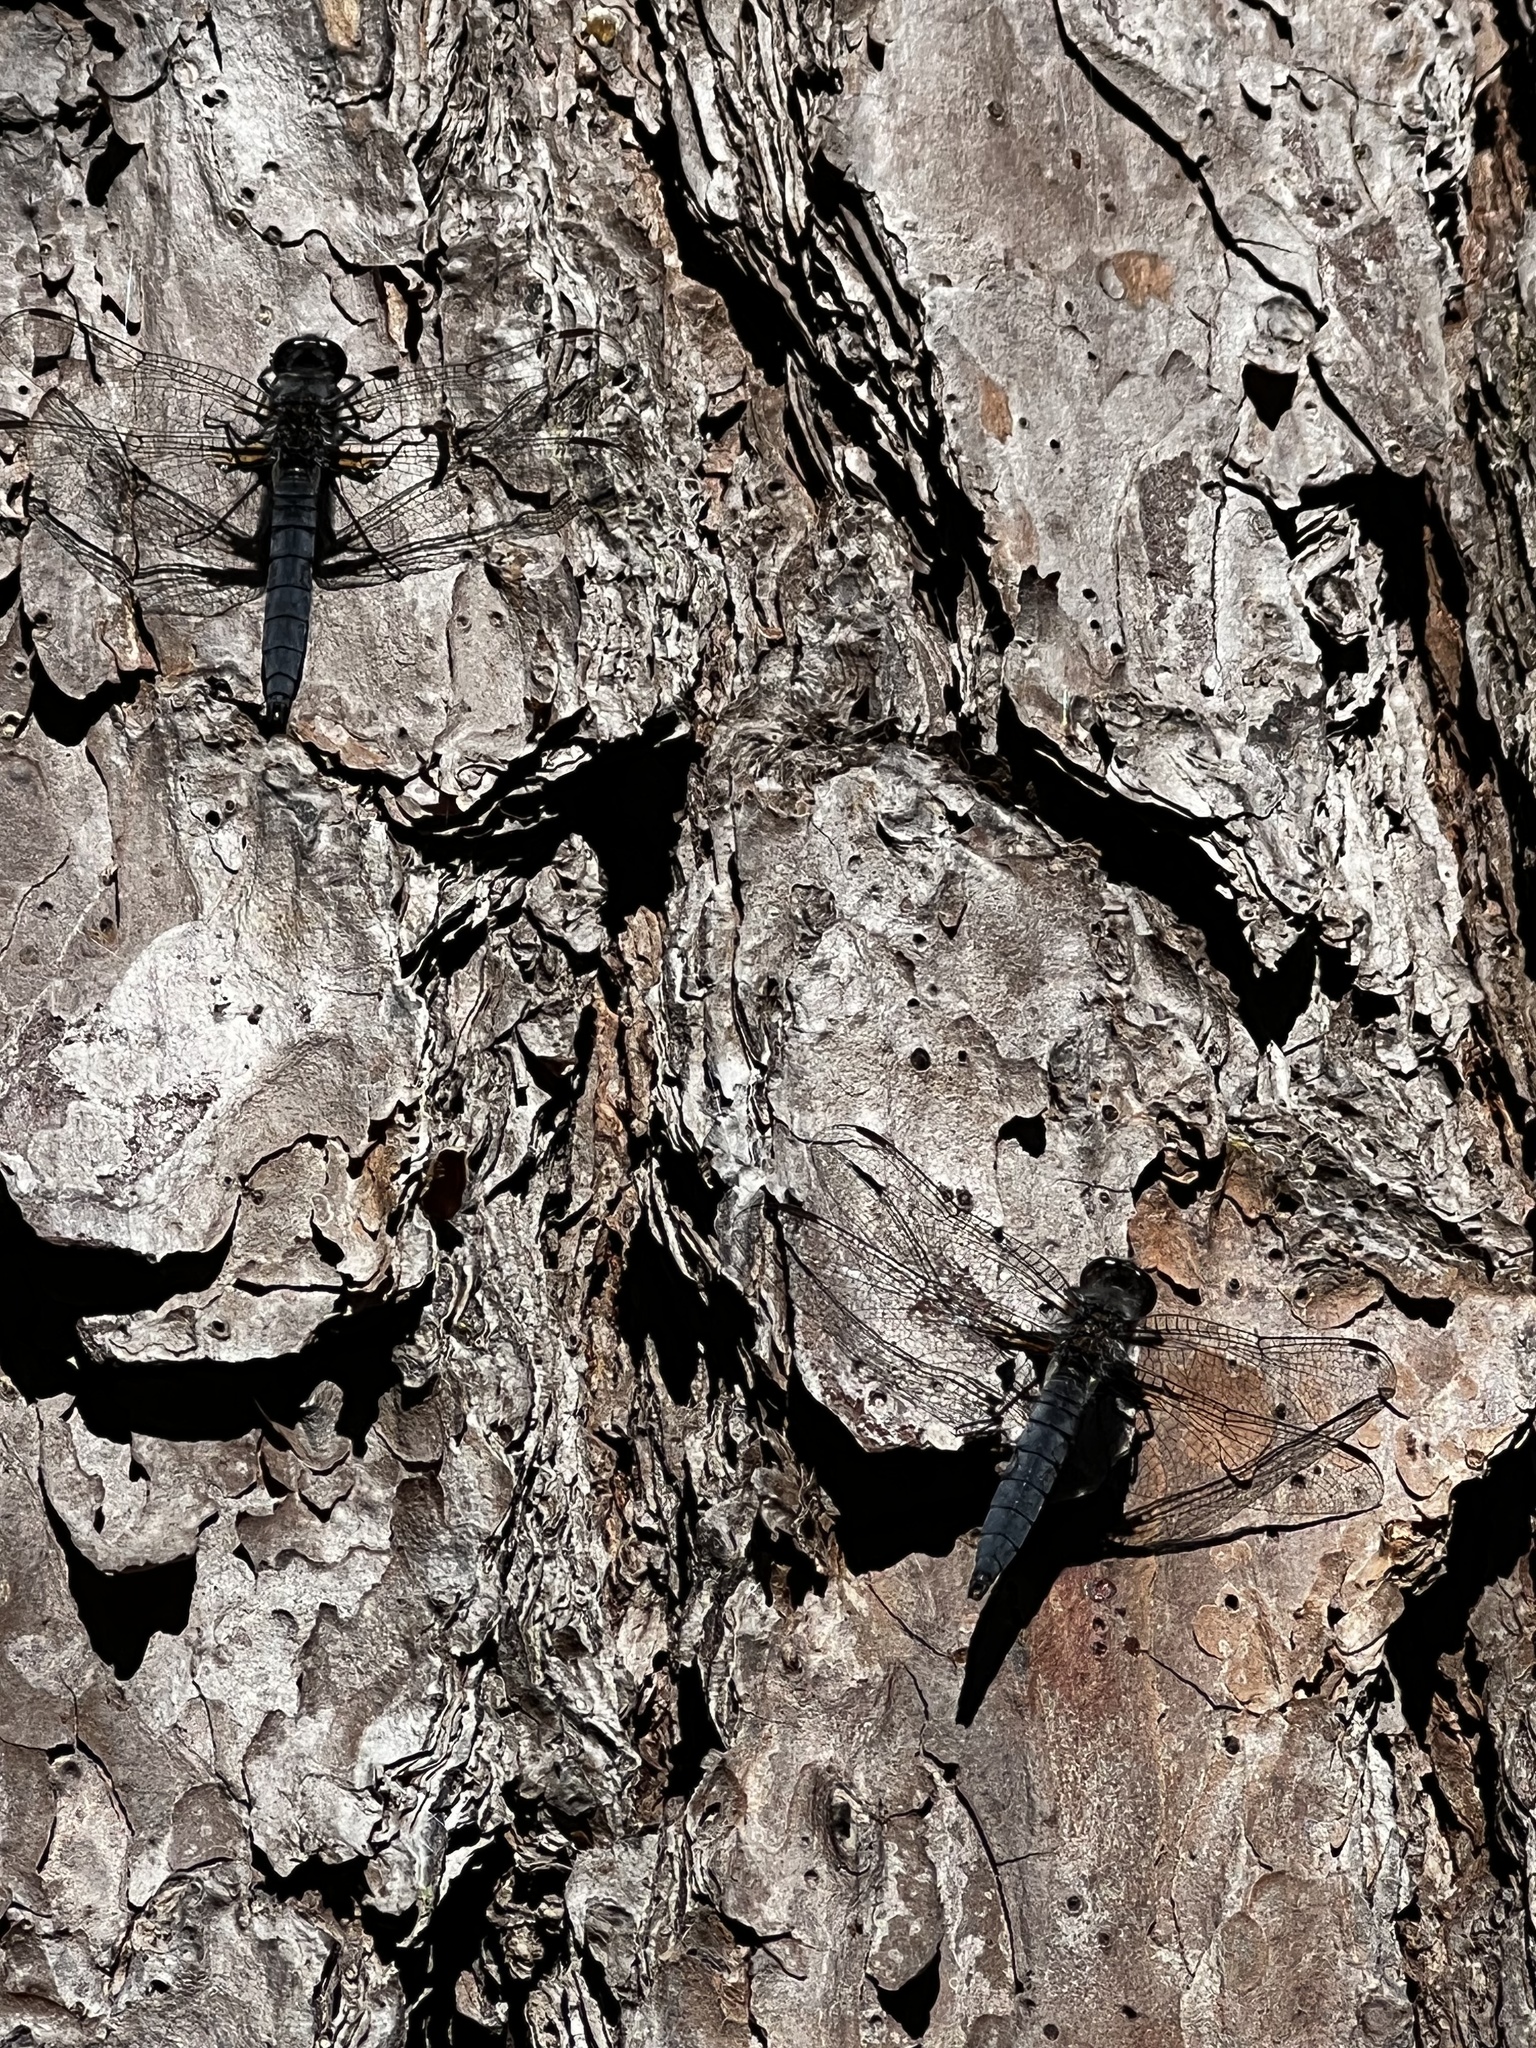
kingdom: Animalia
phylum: Arthropoda
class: Insecta
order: Odonata
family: Libellulidae
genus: Ladona
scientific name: Ladona deplanata
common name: Blue corporal
